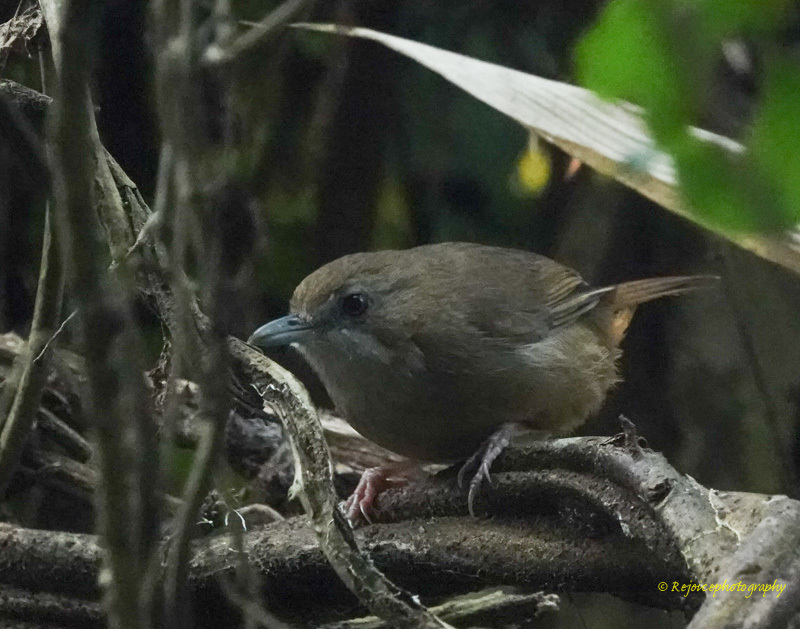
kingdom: Animalia
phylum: Chordata
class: Aves
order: Passeriformes
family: Pellorneidae
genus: Malacocincla
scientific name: Malacocincla abbotti
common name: Abbott's babbler
